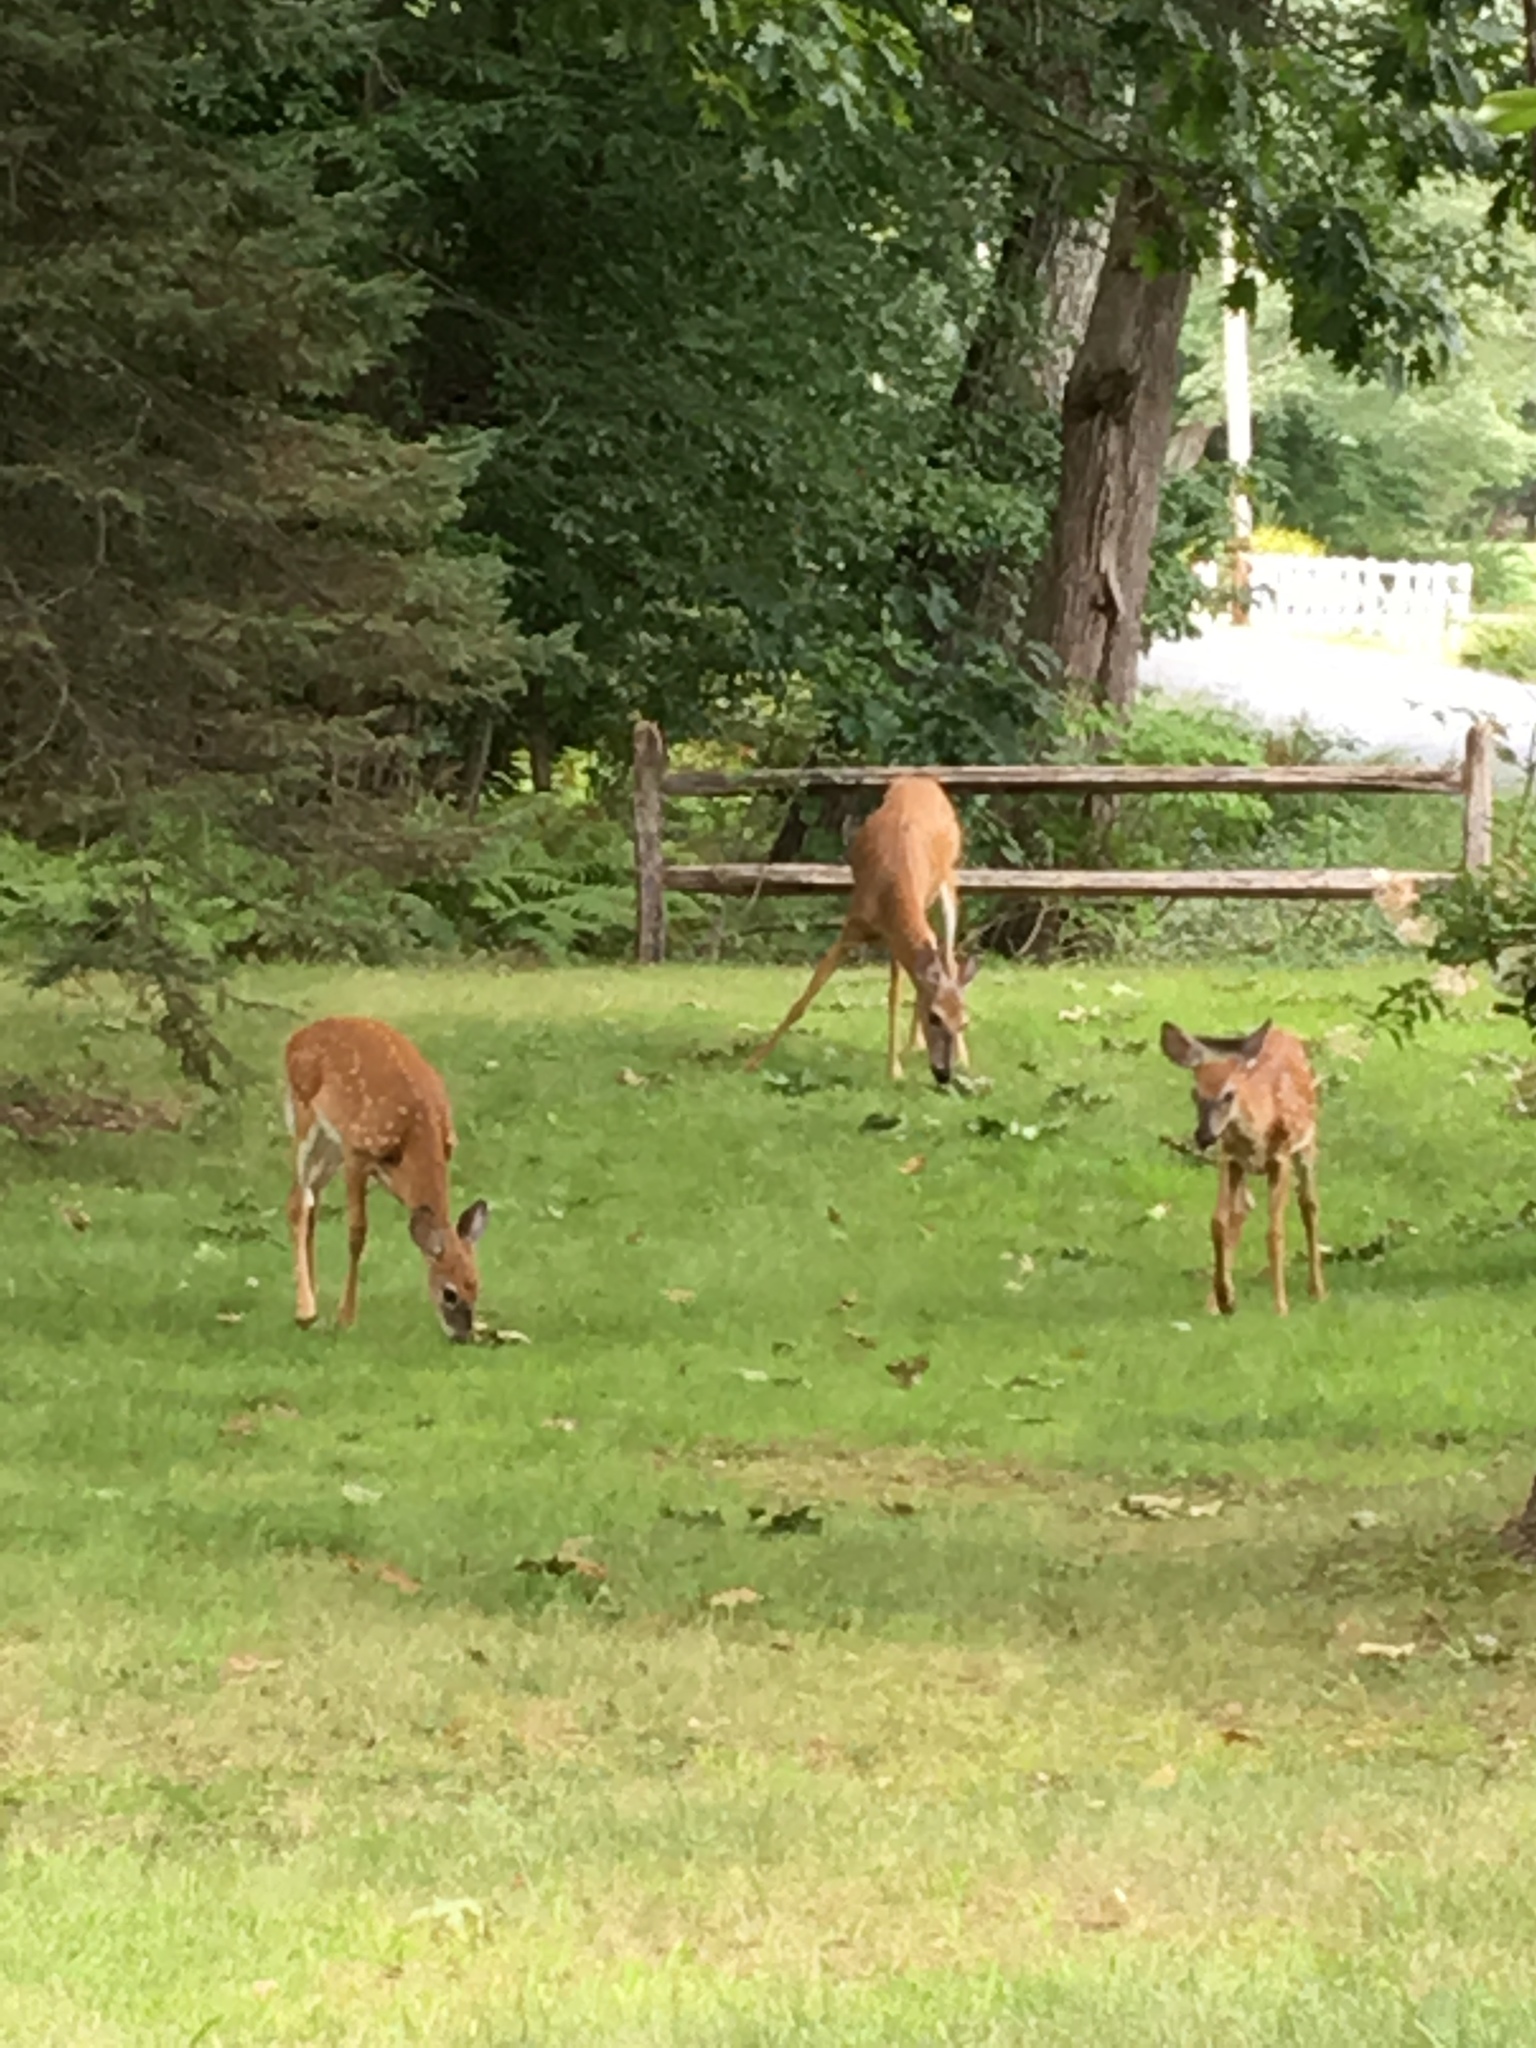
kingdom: Animalia
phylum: Chordata
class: Mammalia
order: Artiodactyla
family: Cervidae
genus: Odocoileus
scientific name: Odocoileus virginianus
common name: White-tailed deer
